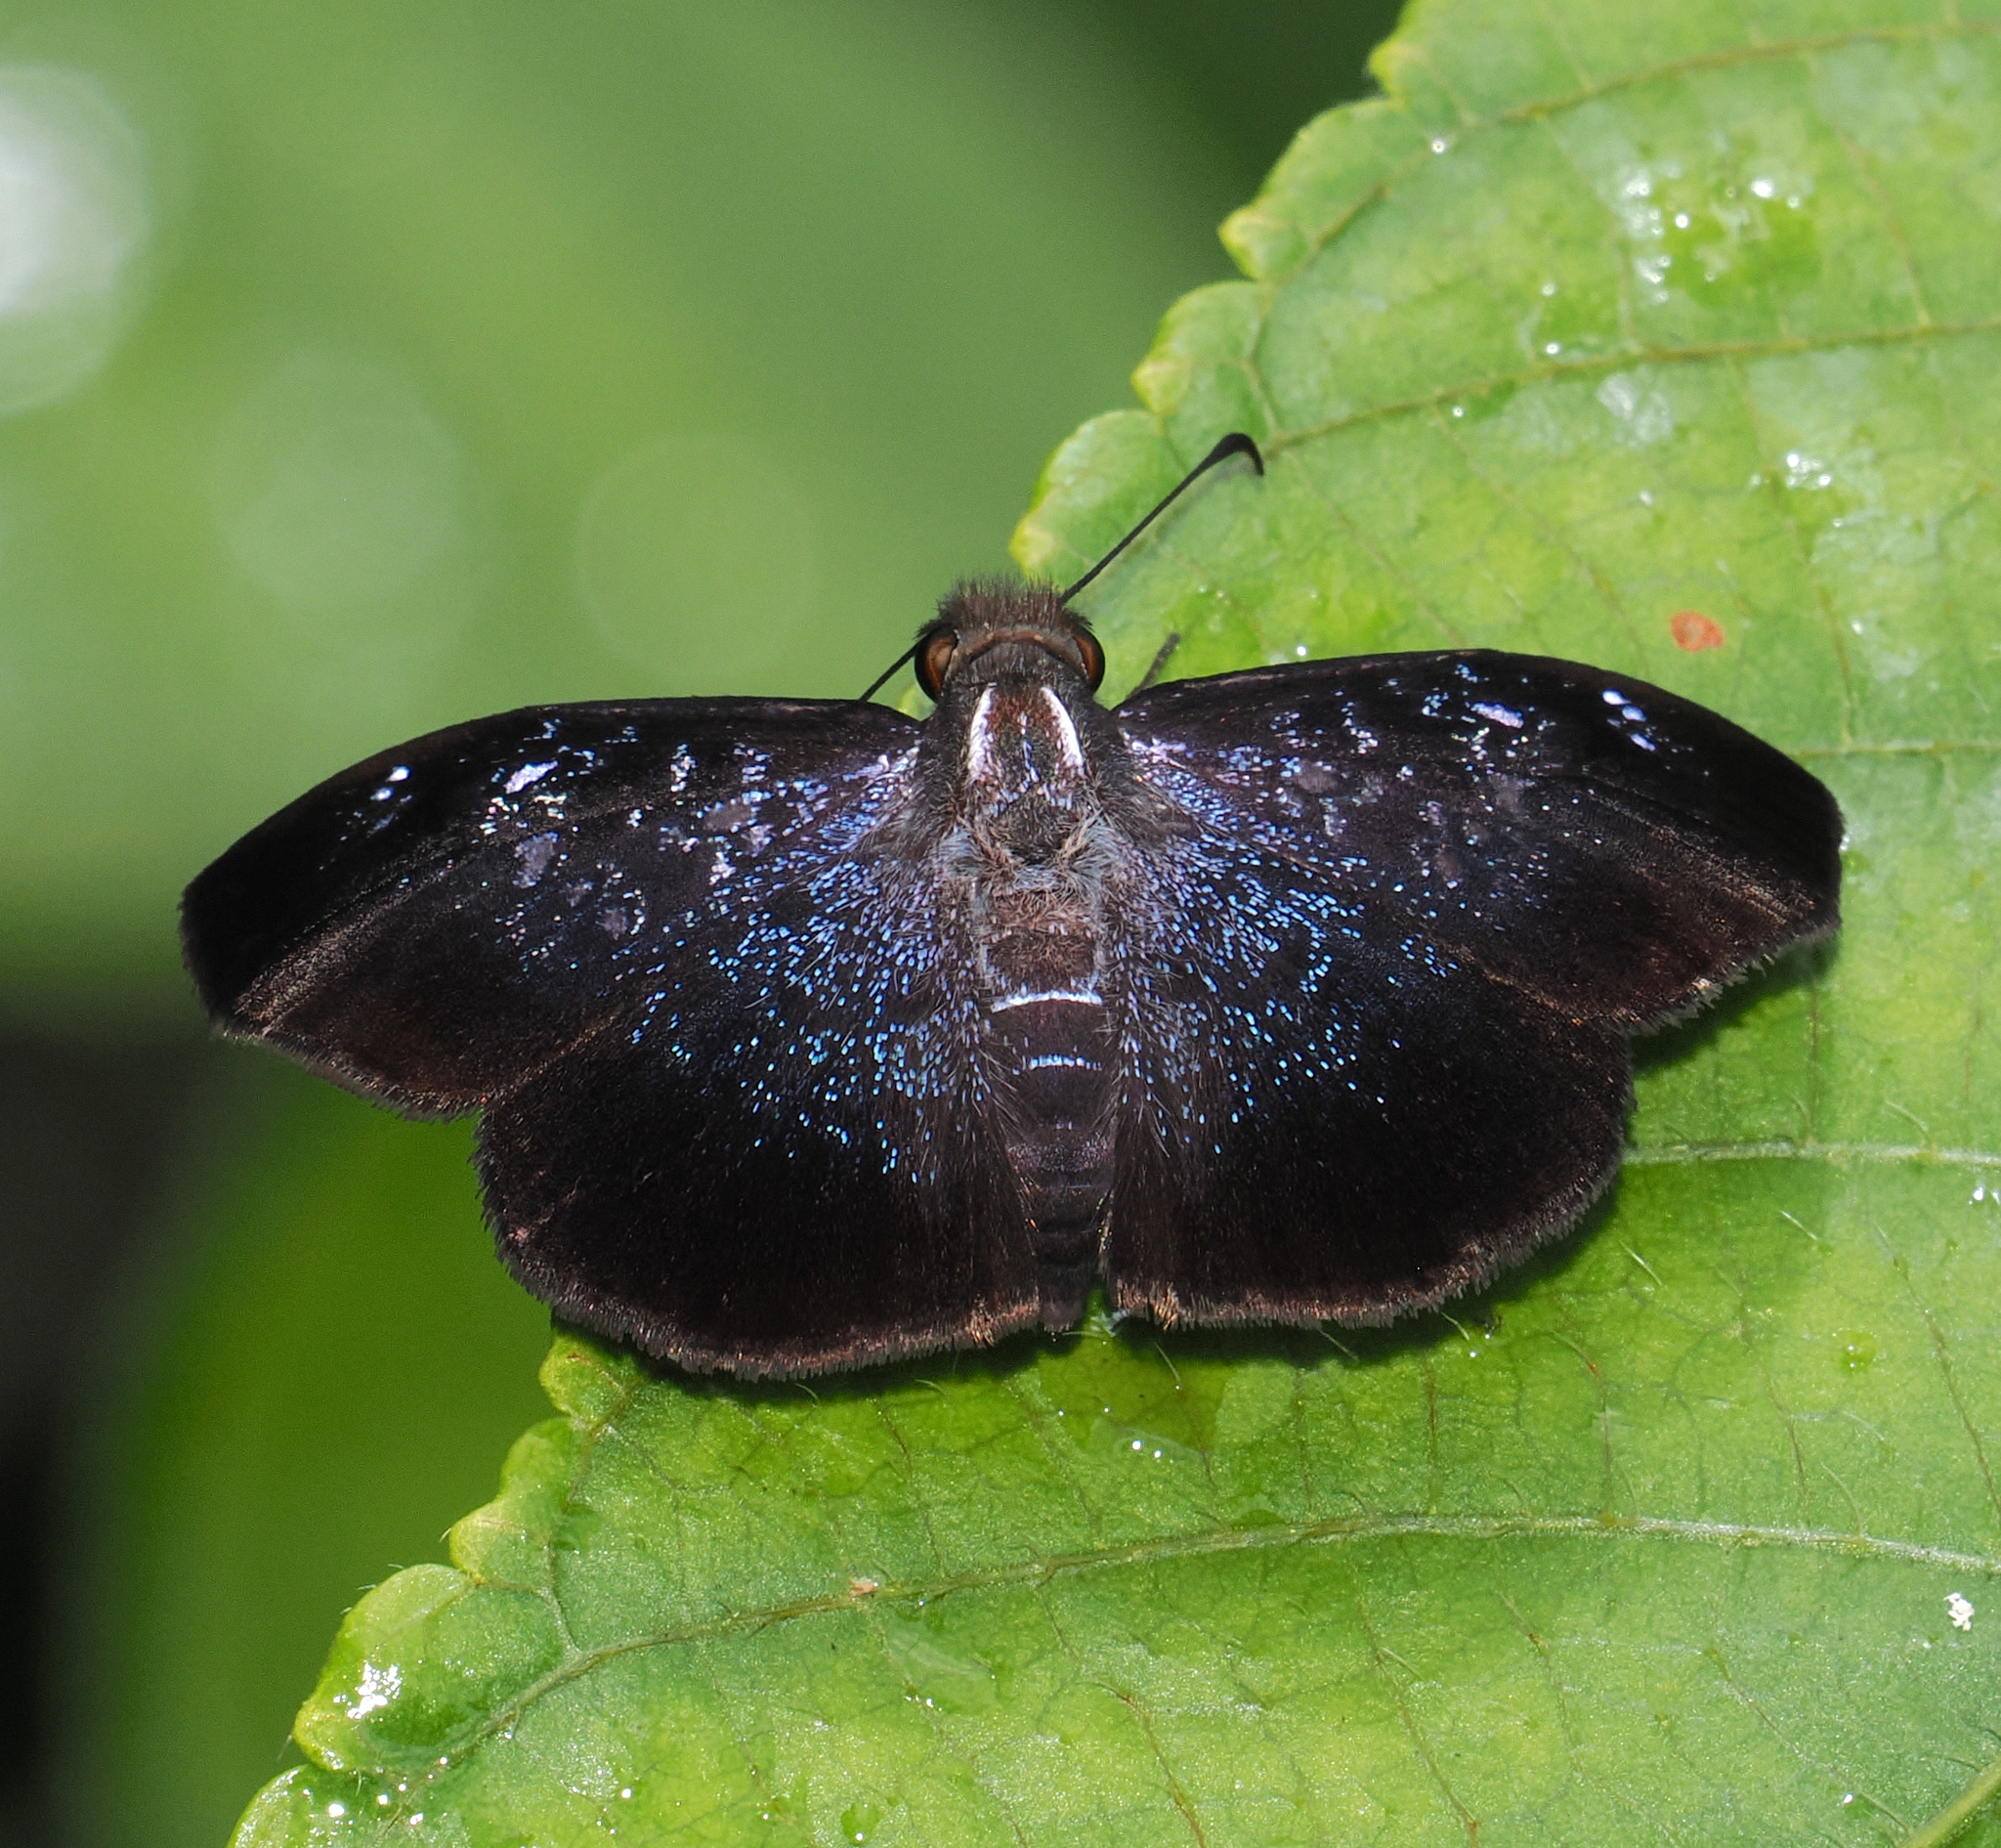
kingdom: Animalia
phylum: Arthropoda
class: Insecta
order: Lepidoptera
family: Hesperiidae
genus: Sophista
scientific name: Sophista pusilla
